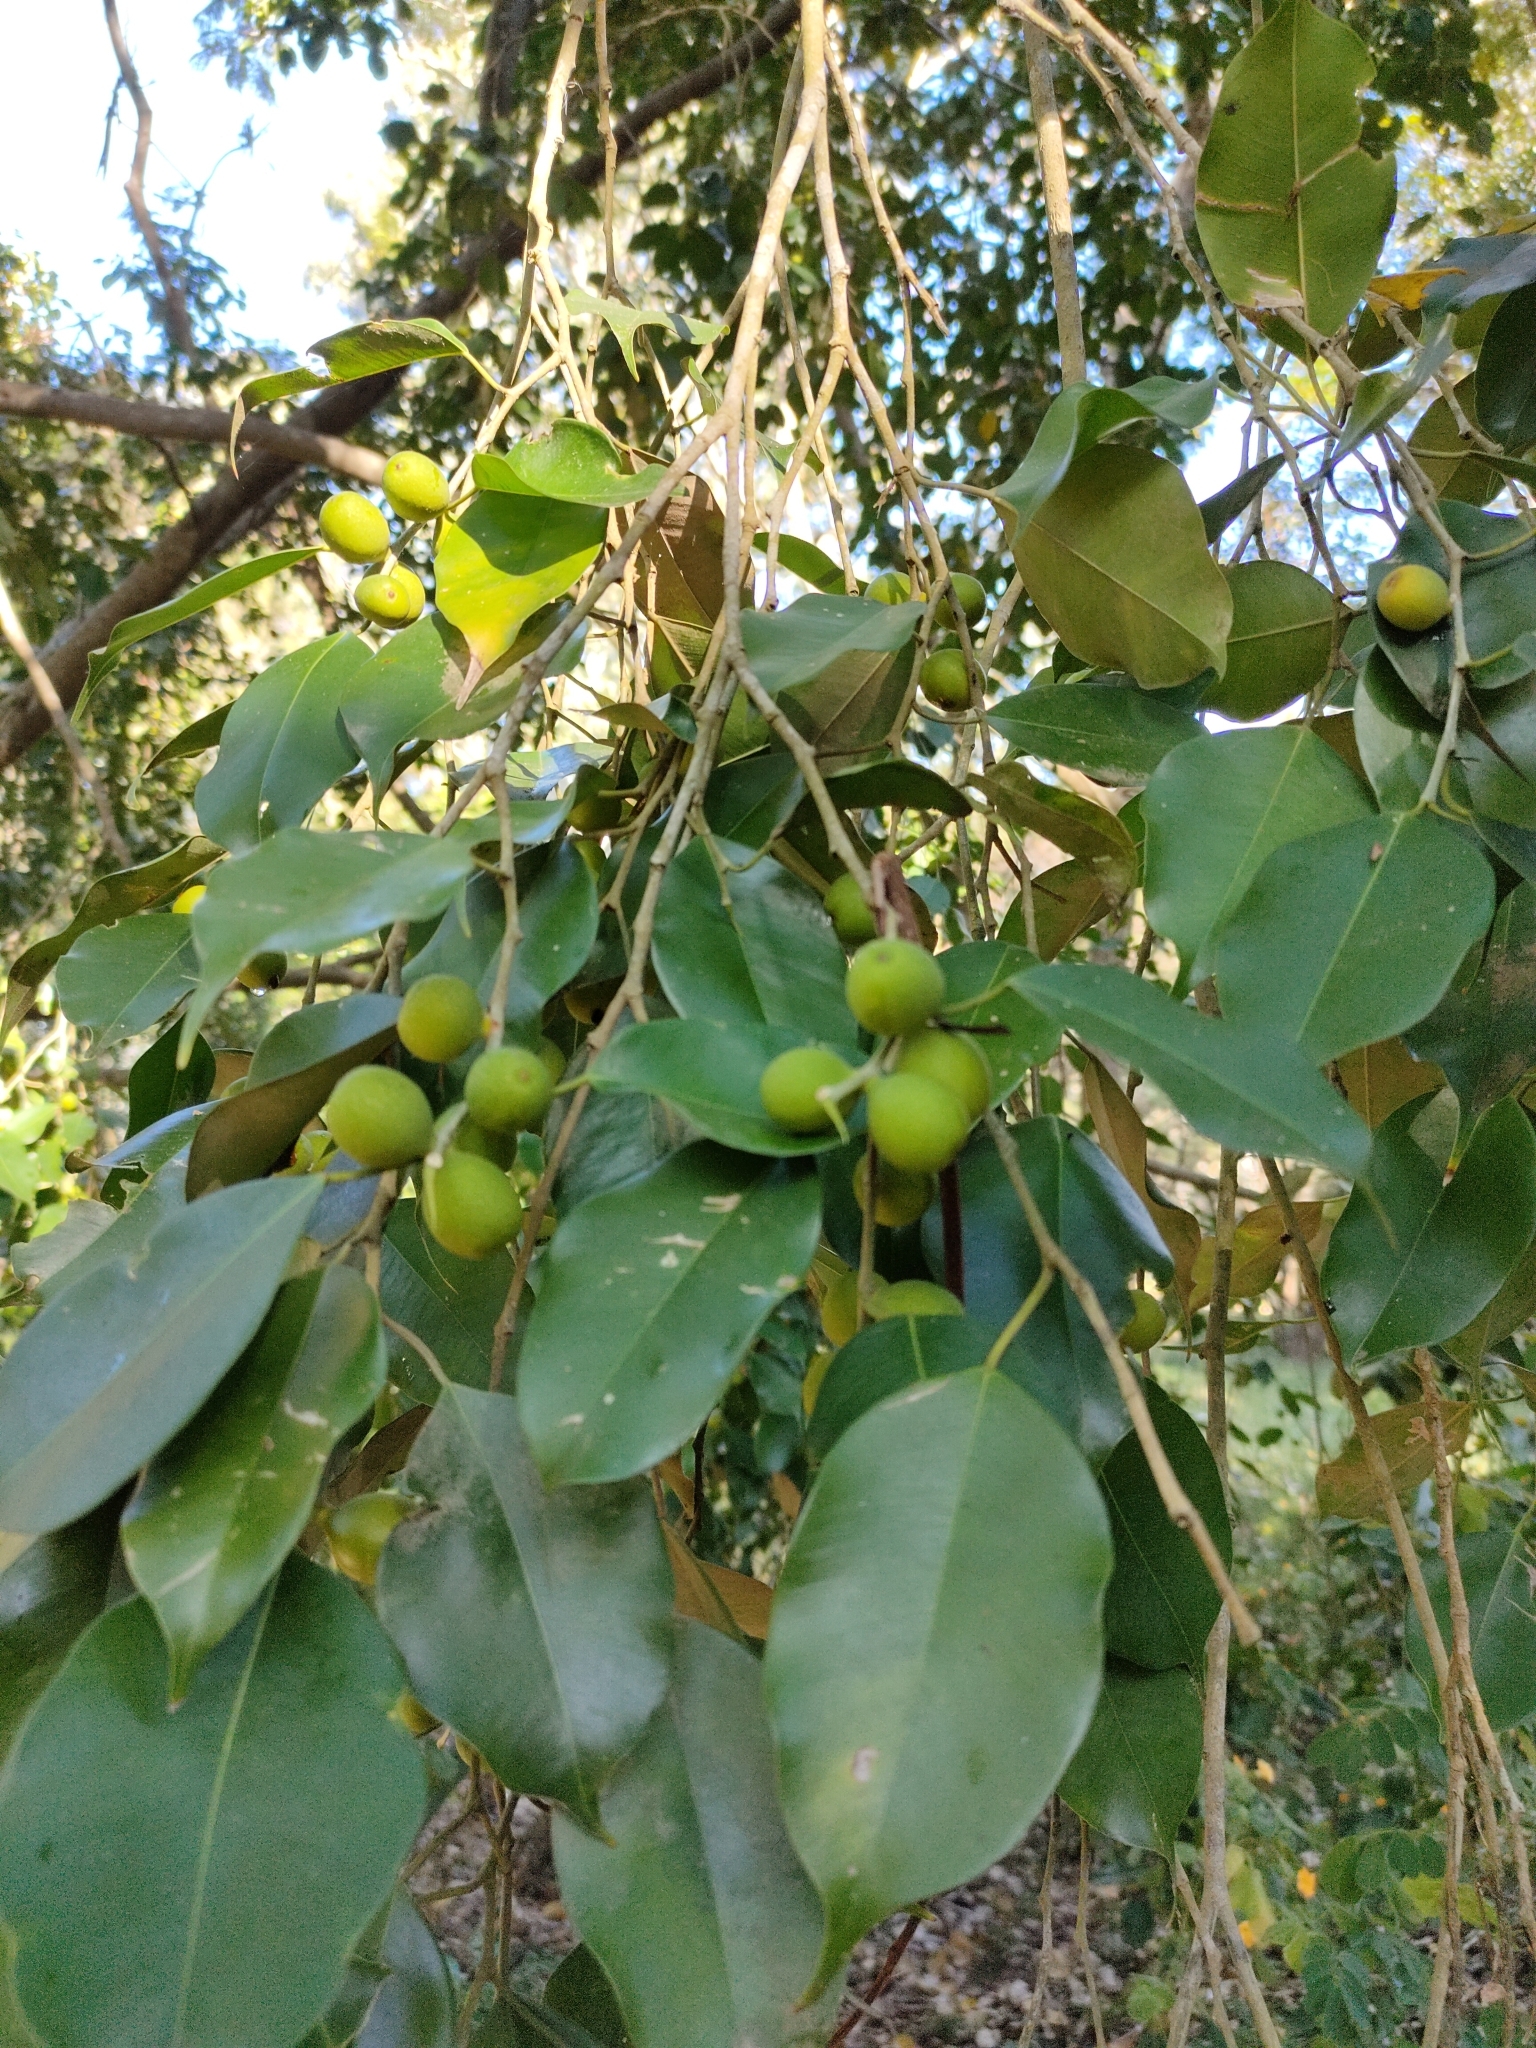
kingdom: Plantae
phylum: Tracheophyta
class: Magnoliopsida
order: Rosales
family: Moraceae
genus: Ficus
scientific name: Ficus benjamina
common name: Weeping fig
